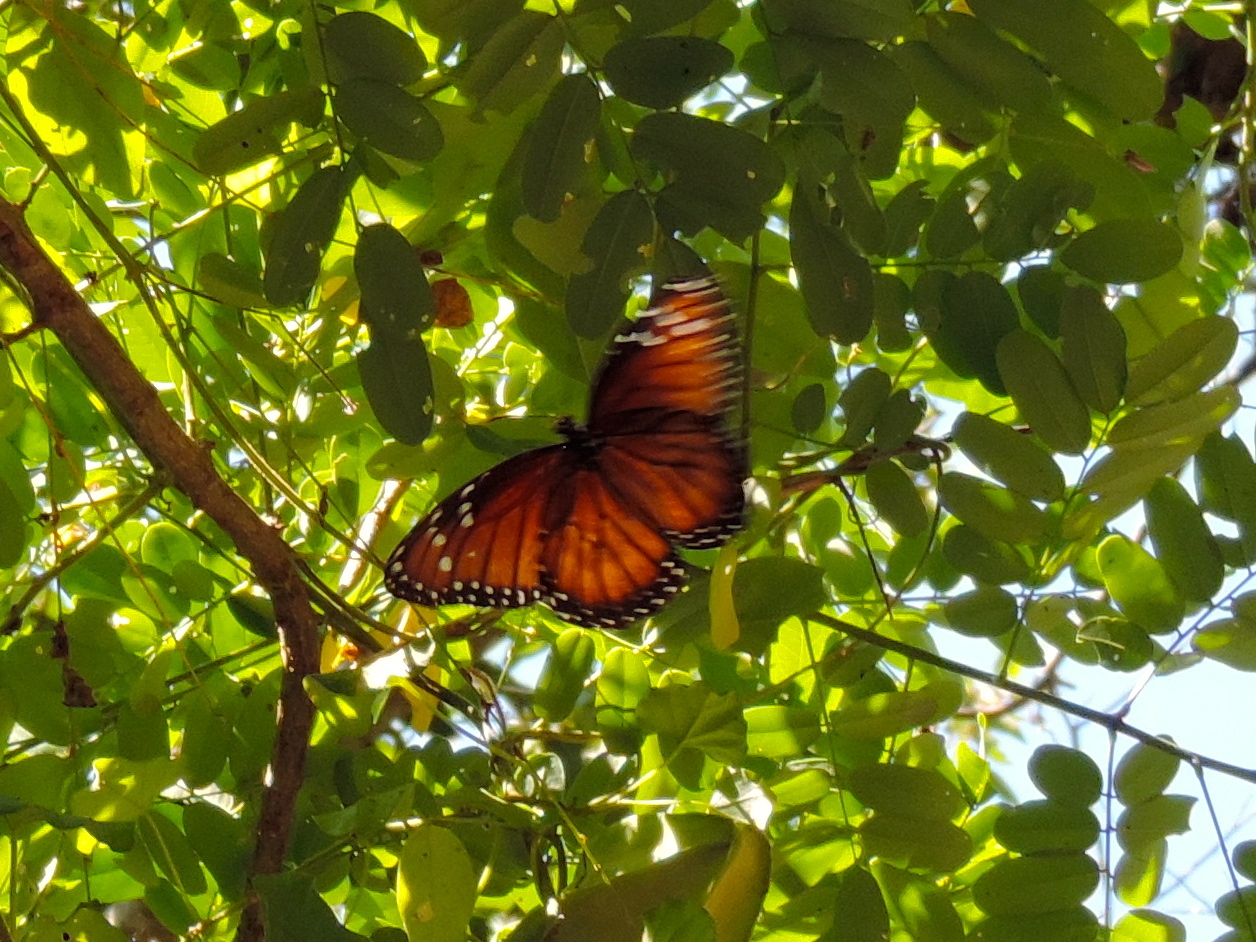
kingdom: Animalia
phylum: Arthropoda
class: Insecta
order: Lepidoptera
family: Nymphalidae
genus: Danaus
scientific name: Danaus eresimus
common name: Soldier
